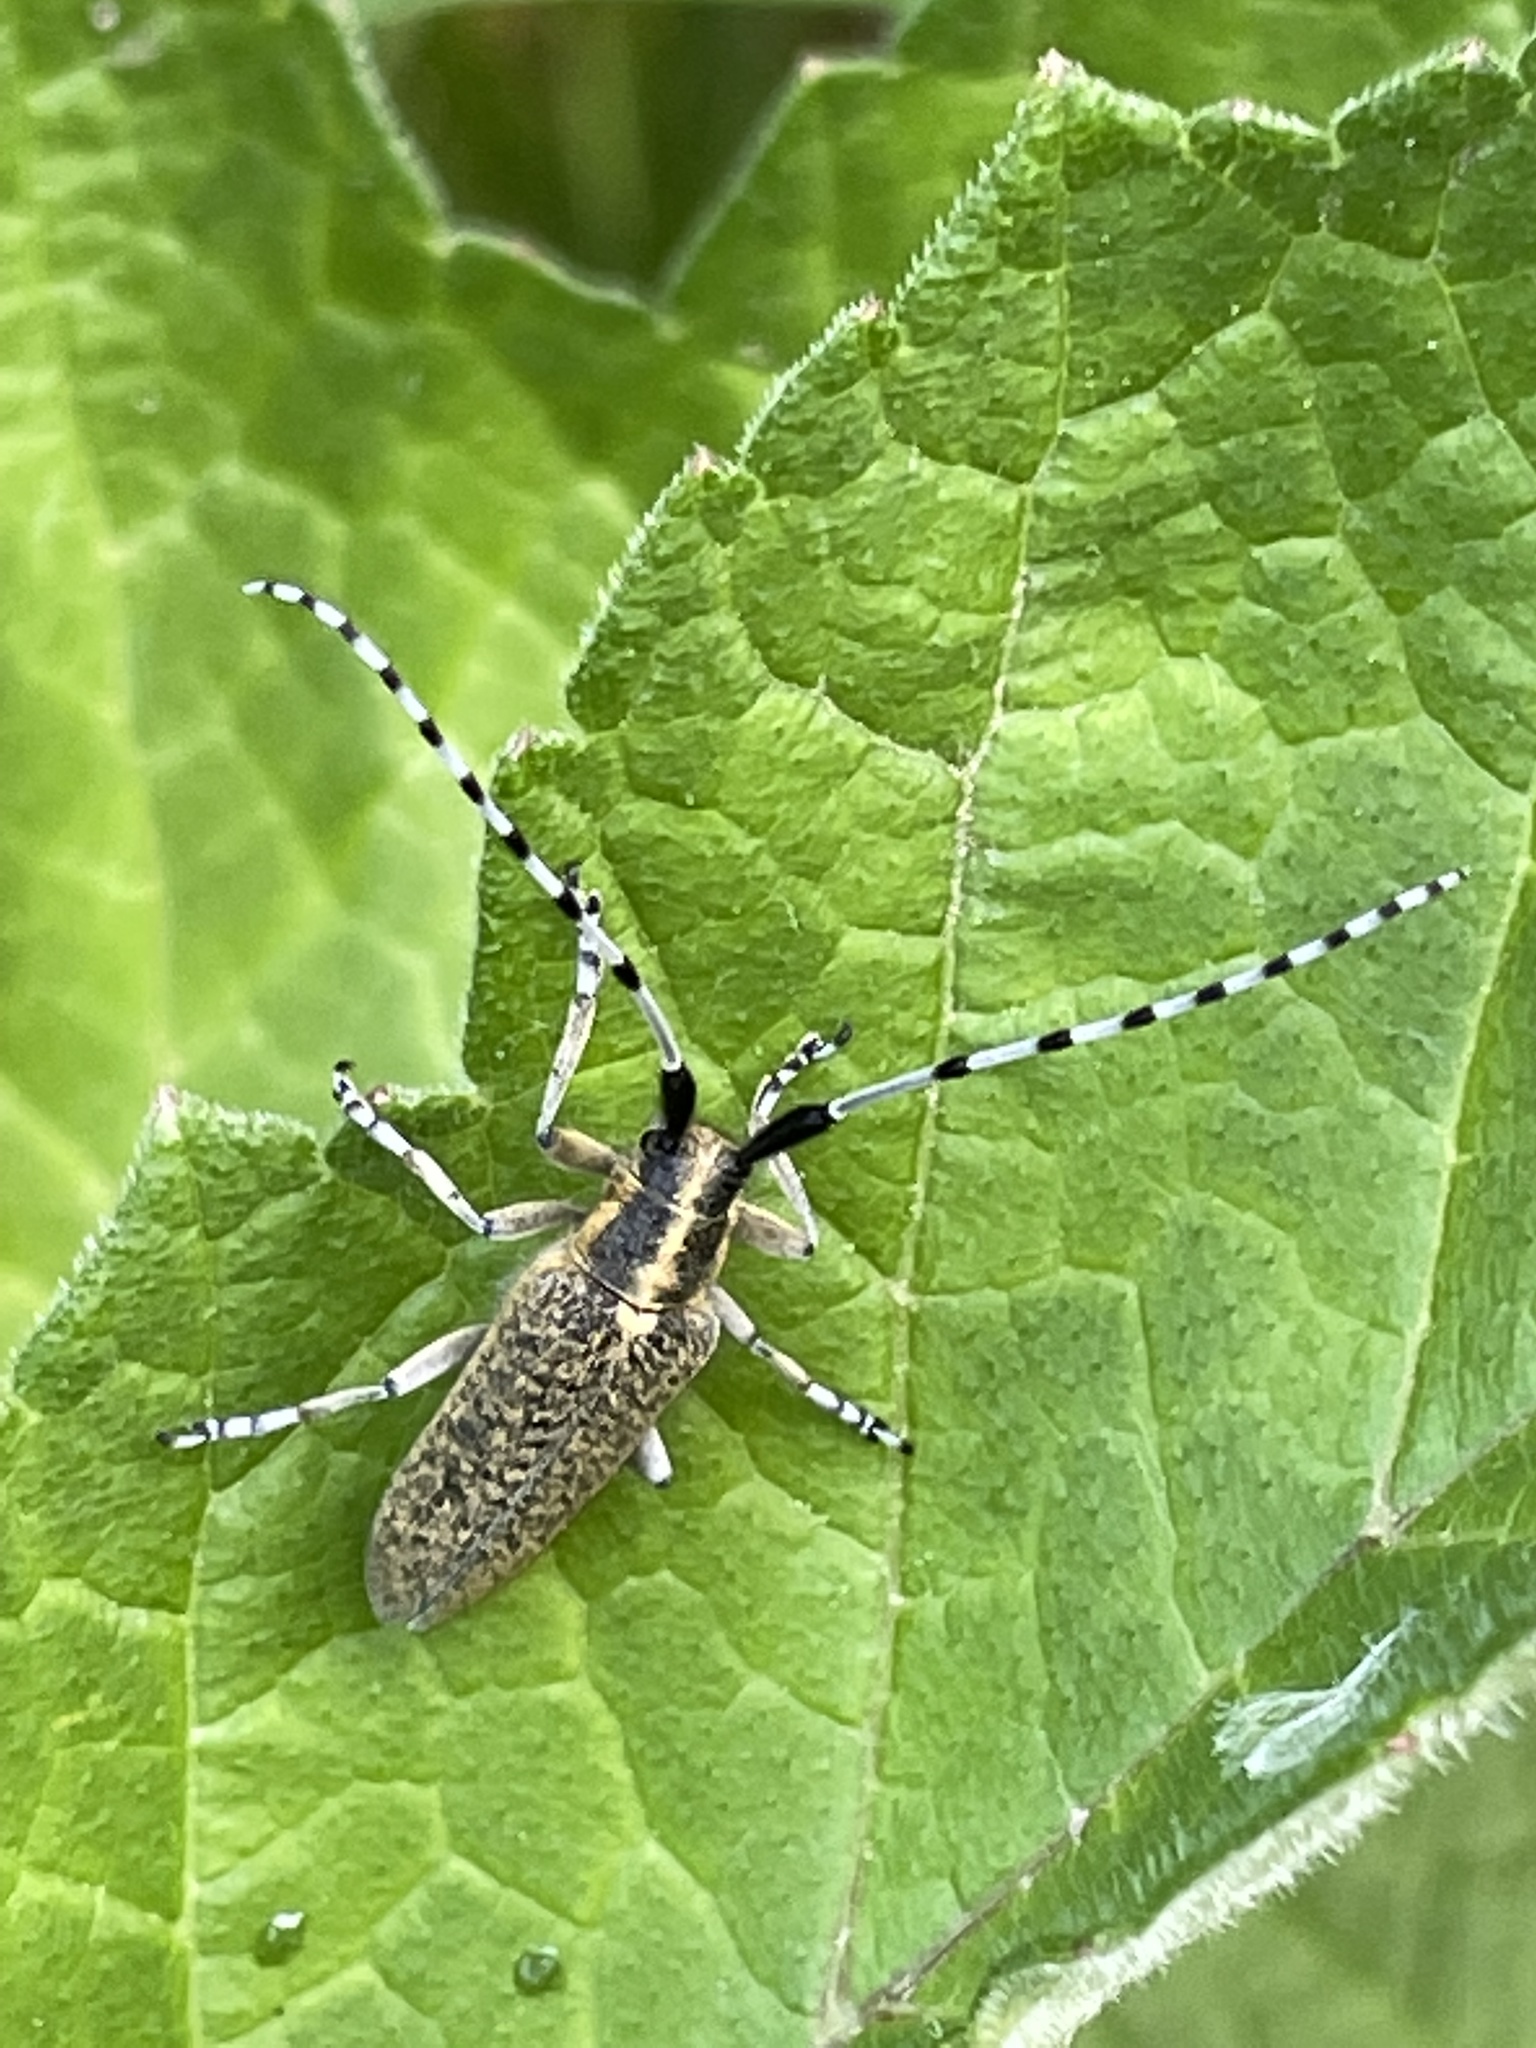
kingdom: Animalia
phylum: Arthropoda
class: Insecta
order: Coleoptera
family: Cerambycidae
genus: Agapanthia
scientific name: Agapanthia villosoviridescens
